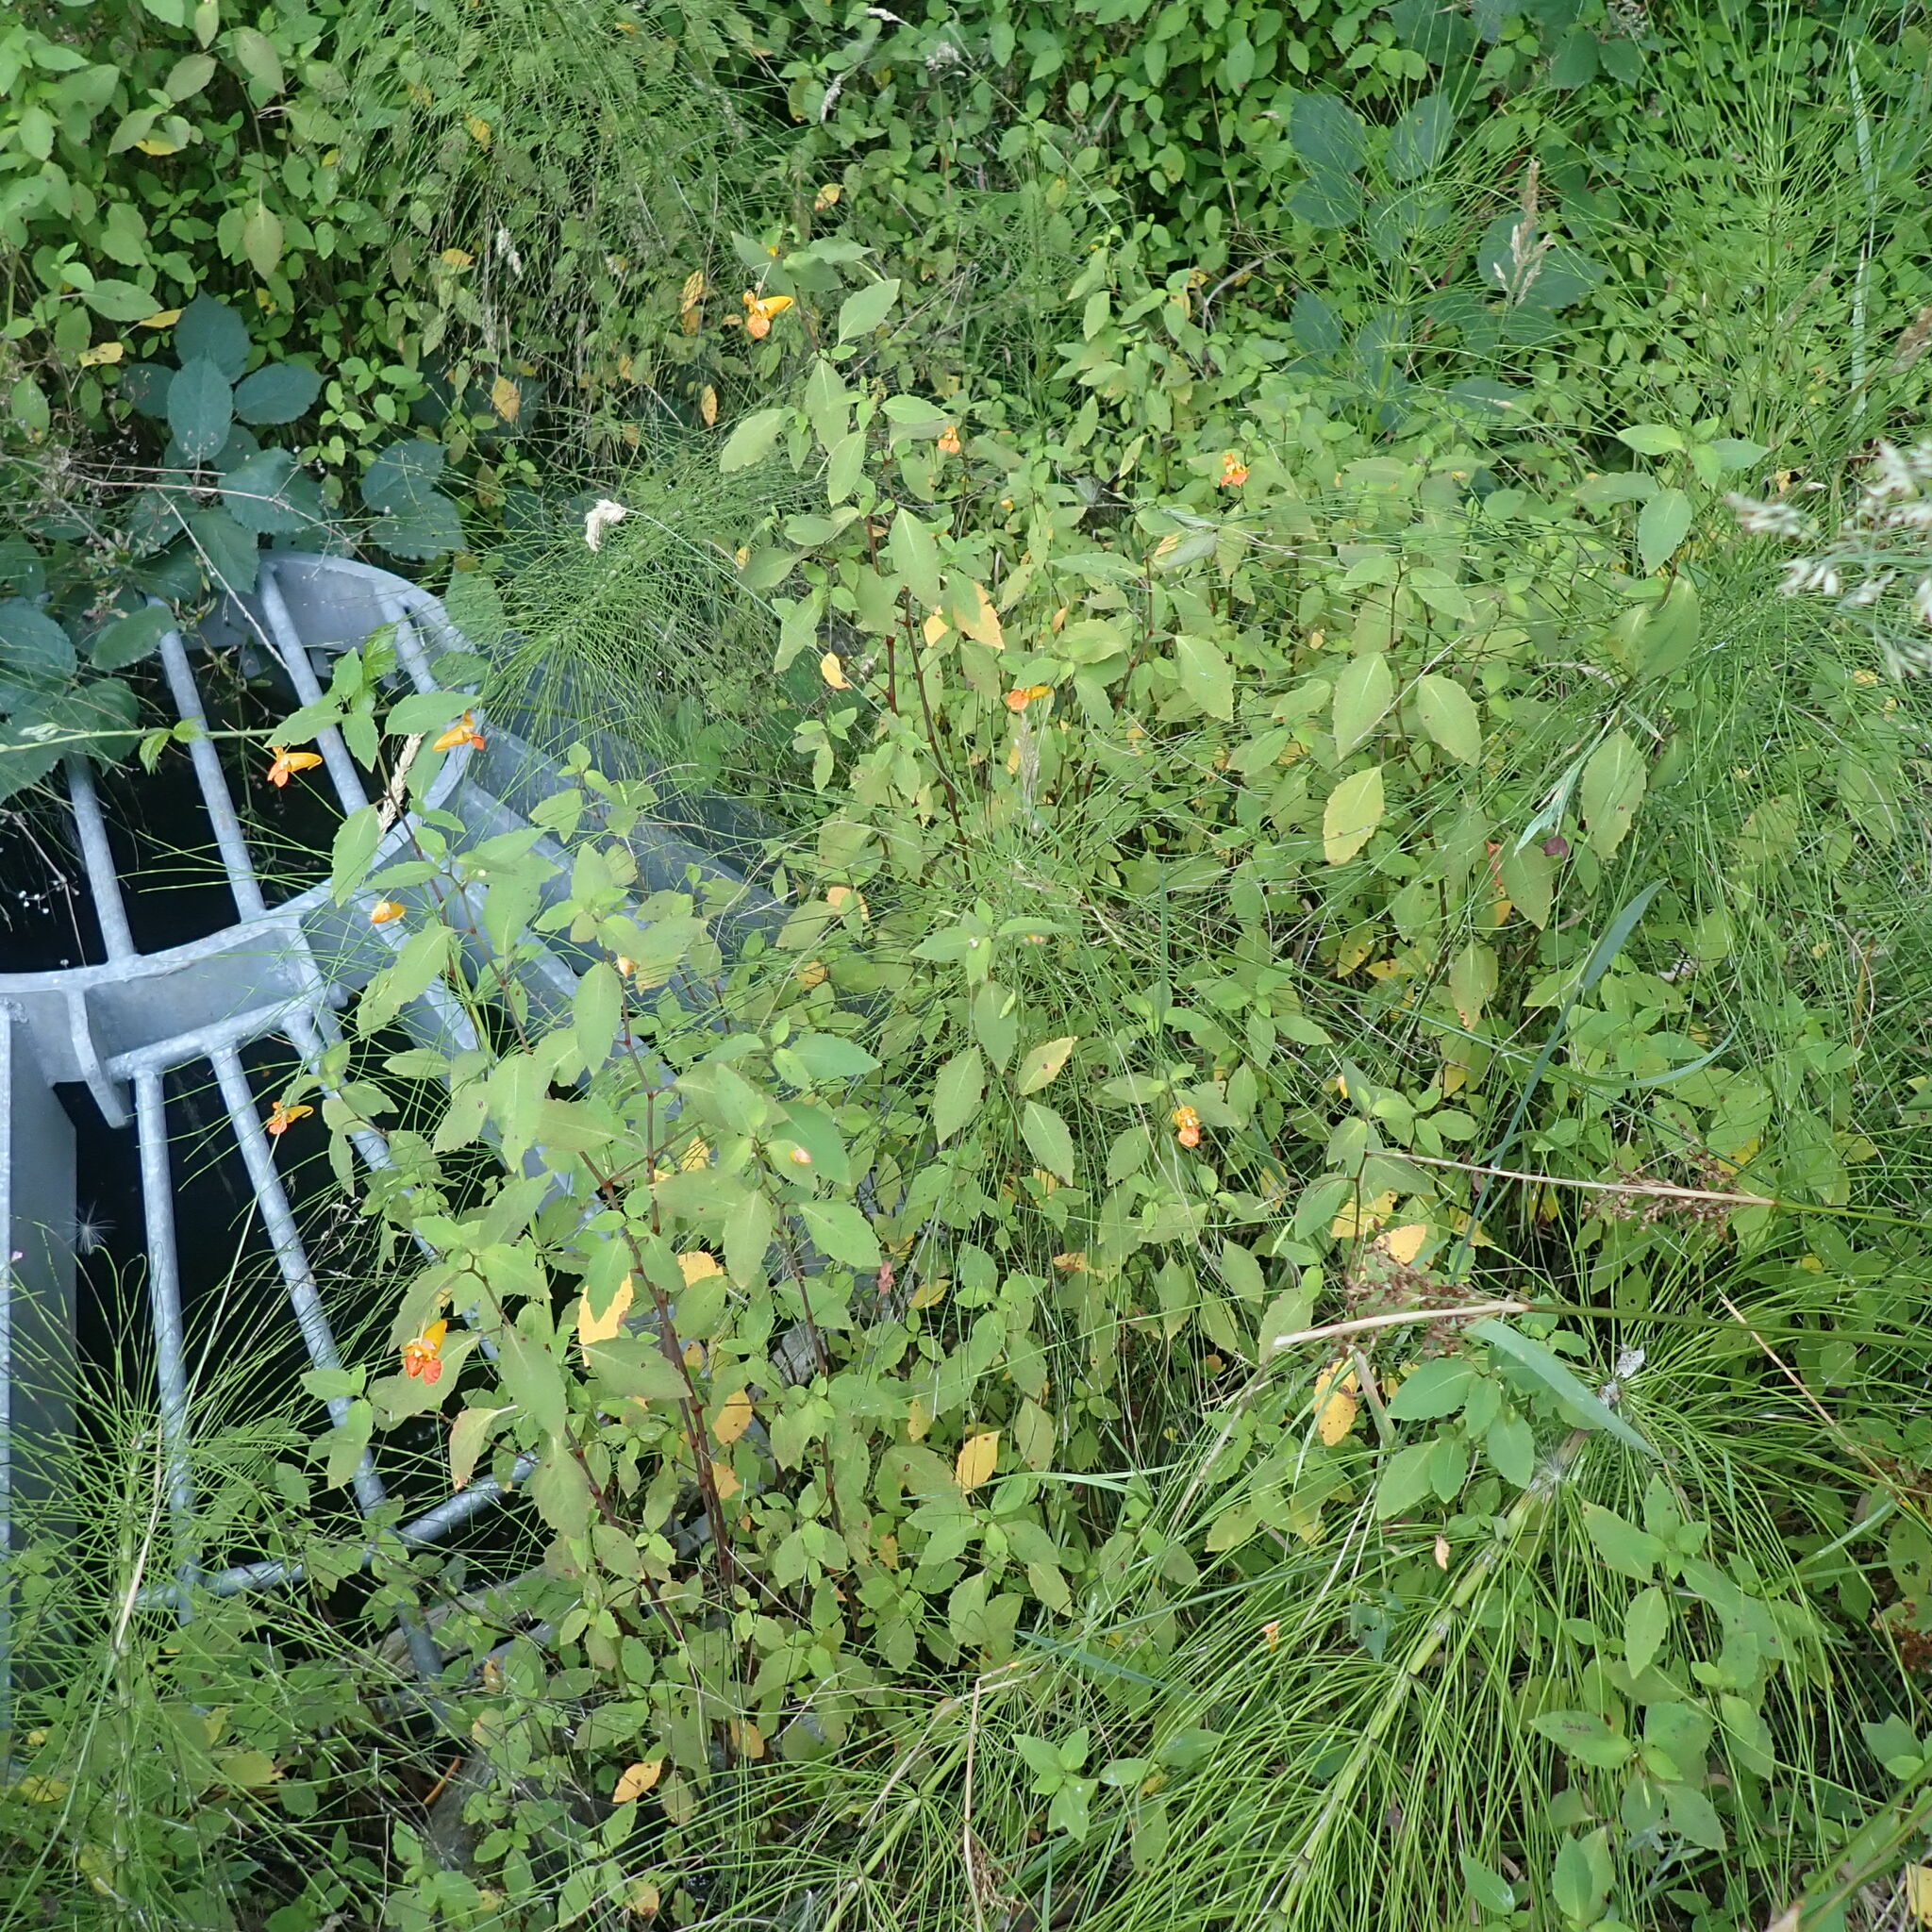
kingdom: Plantae
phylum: Tracheophyta
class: Magnoliopsida
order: Ericales
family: Balsaminaceae
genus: Impatiens
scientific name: Impatiens capensis
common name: Orange balsam
